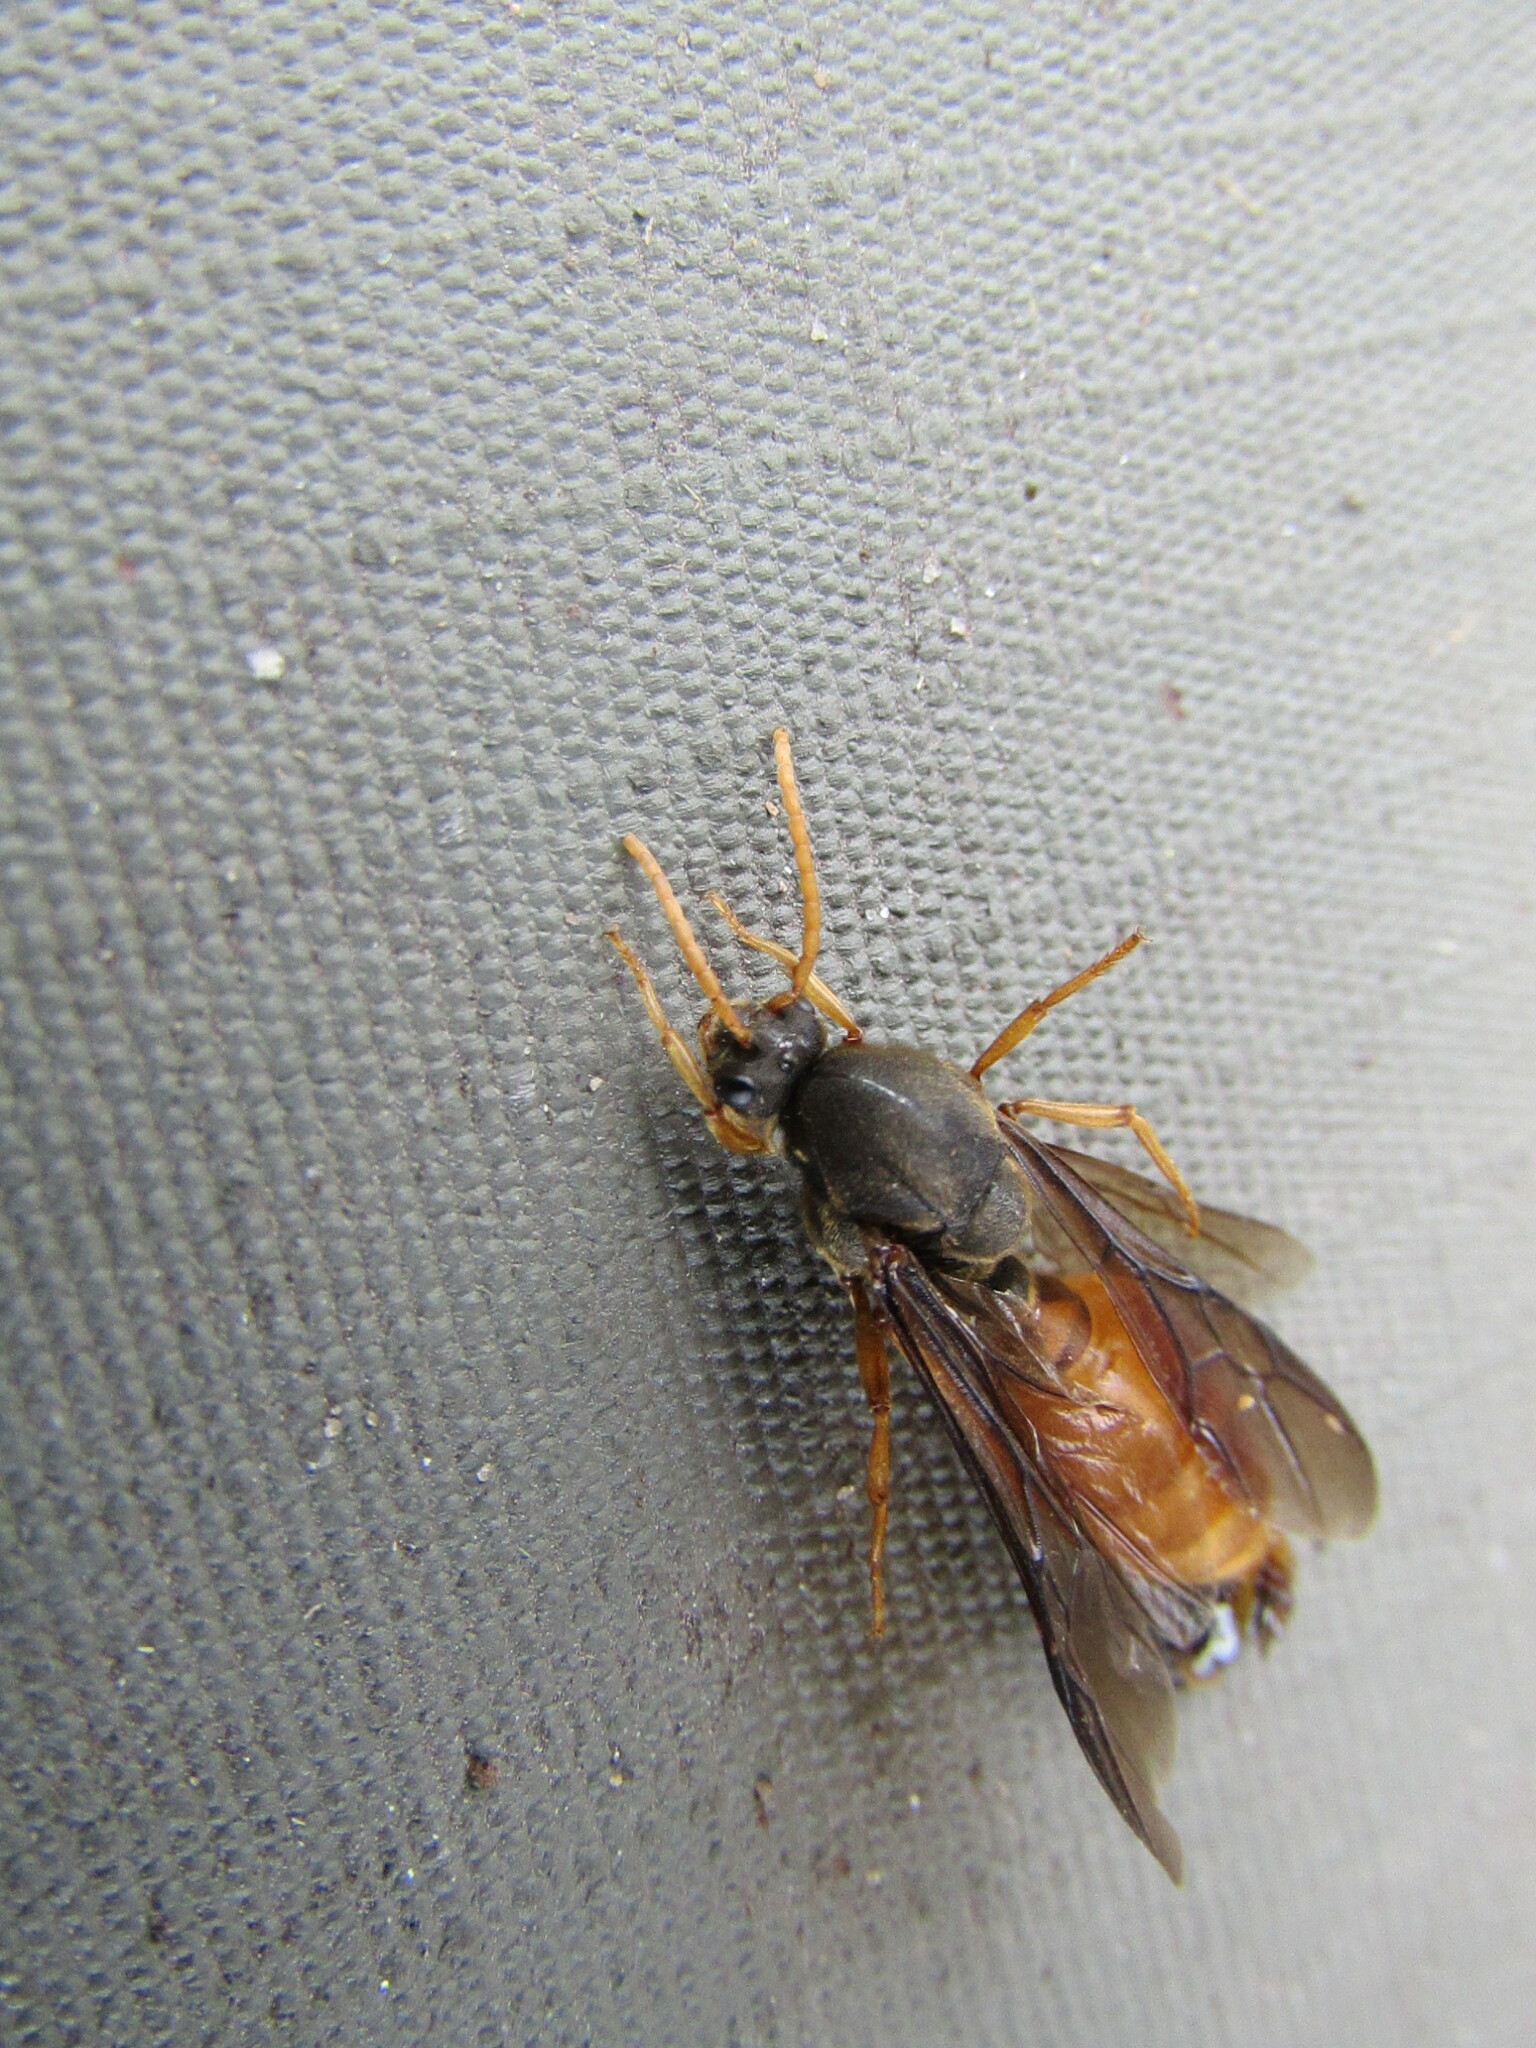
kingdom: Animalia
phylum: Arthropoda
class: Insecta
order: Hymenoptera
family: Formicidae
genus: Carebara
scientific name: Carebara vidua
